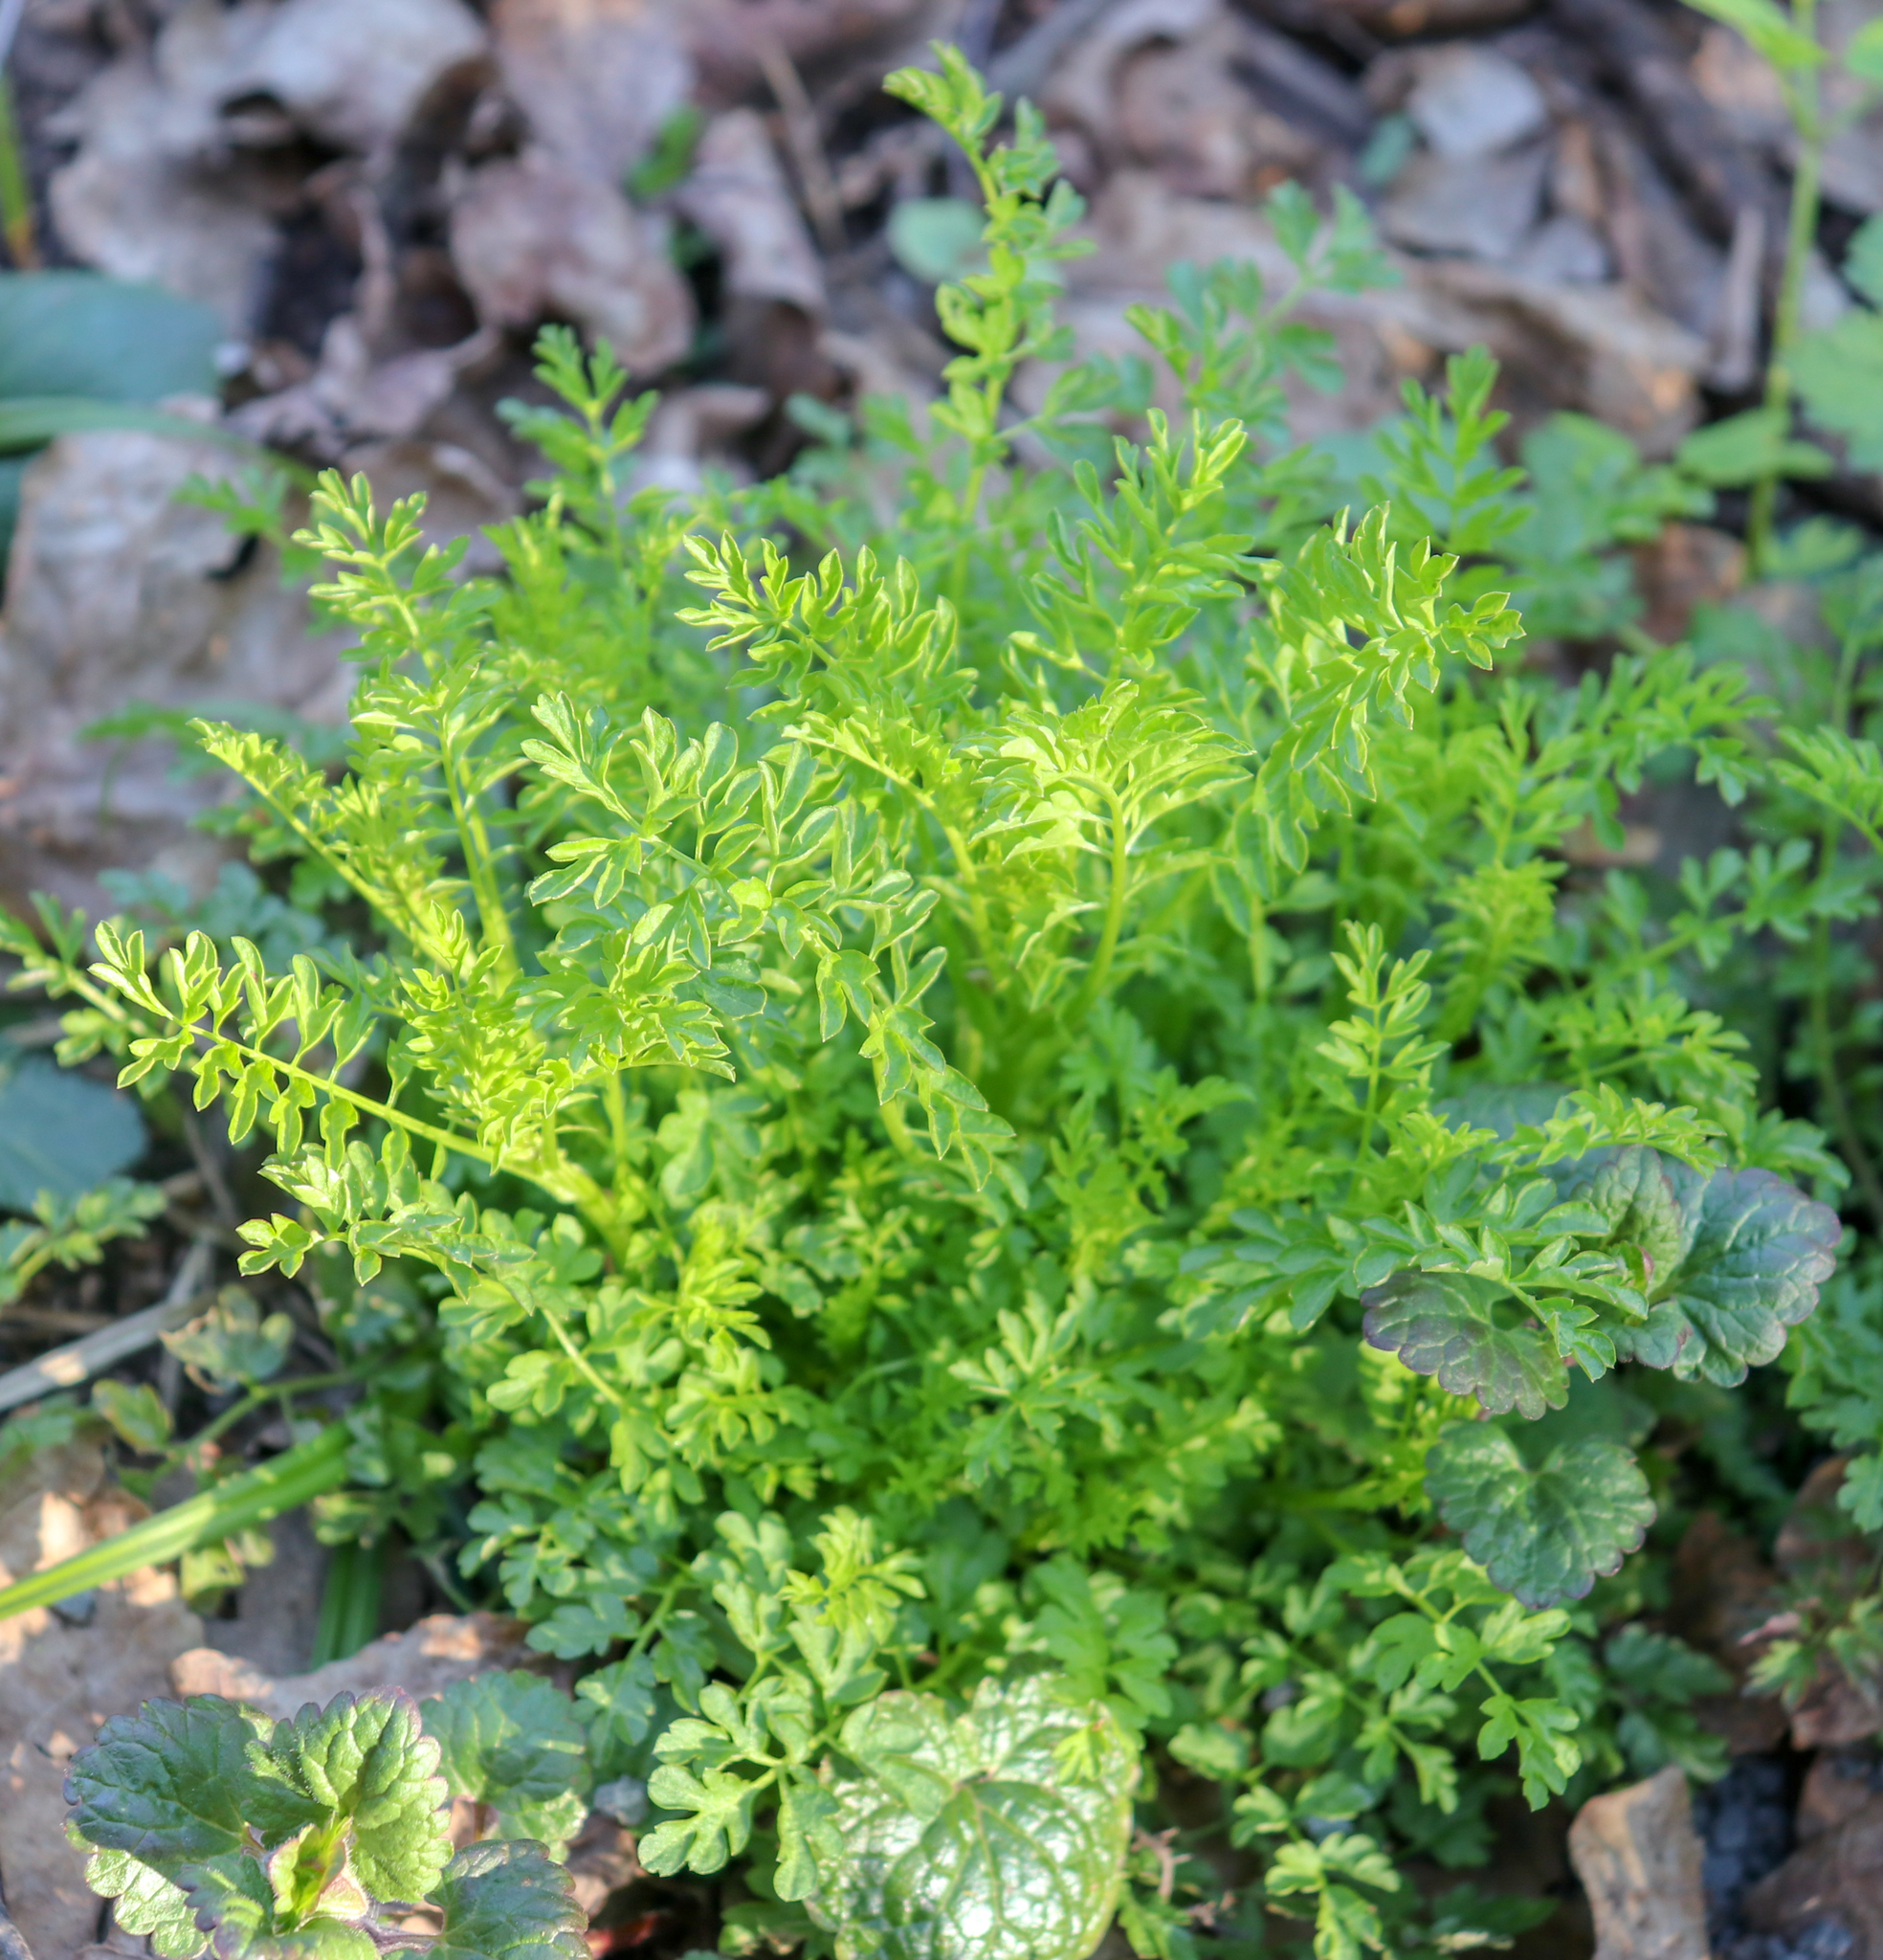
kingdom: Plantae
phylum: Tracheophyta
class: Magnoliopsida
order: Brassicales
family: Brassicaceae
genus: Cardamine
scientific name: Cardamine impatiens
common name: Narrow-leaved bitter-cress
